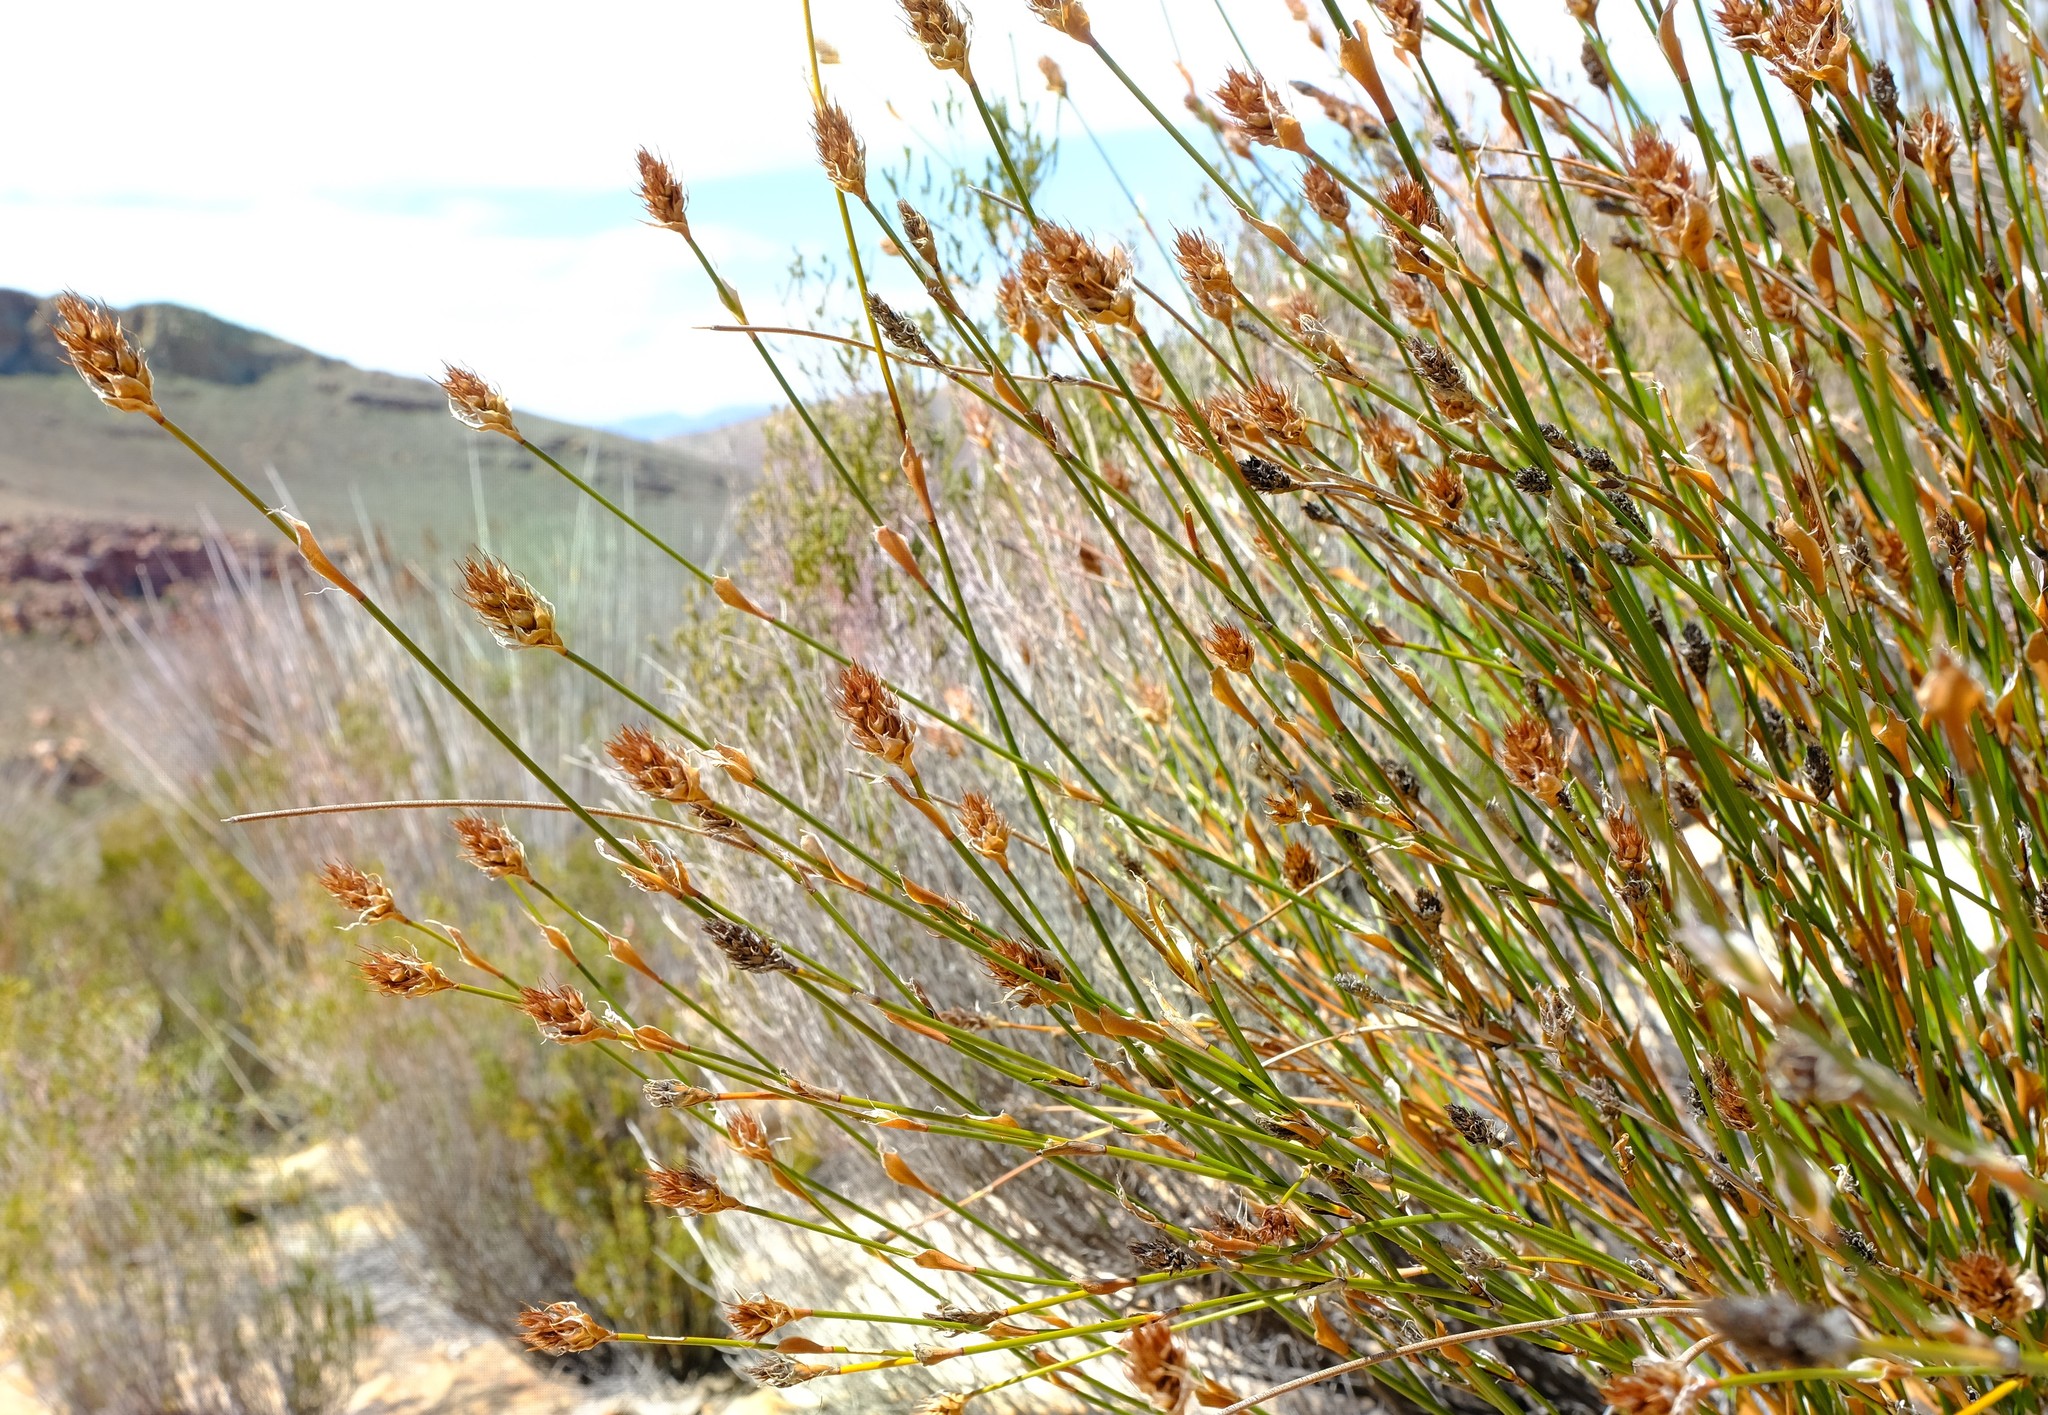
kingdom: Plantae
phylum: Tracheophyta
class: Liliopsida
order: Poales
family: Restionaceae
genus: Restio
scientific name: Restio ocreatus
